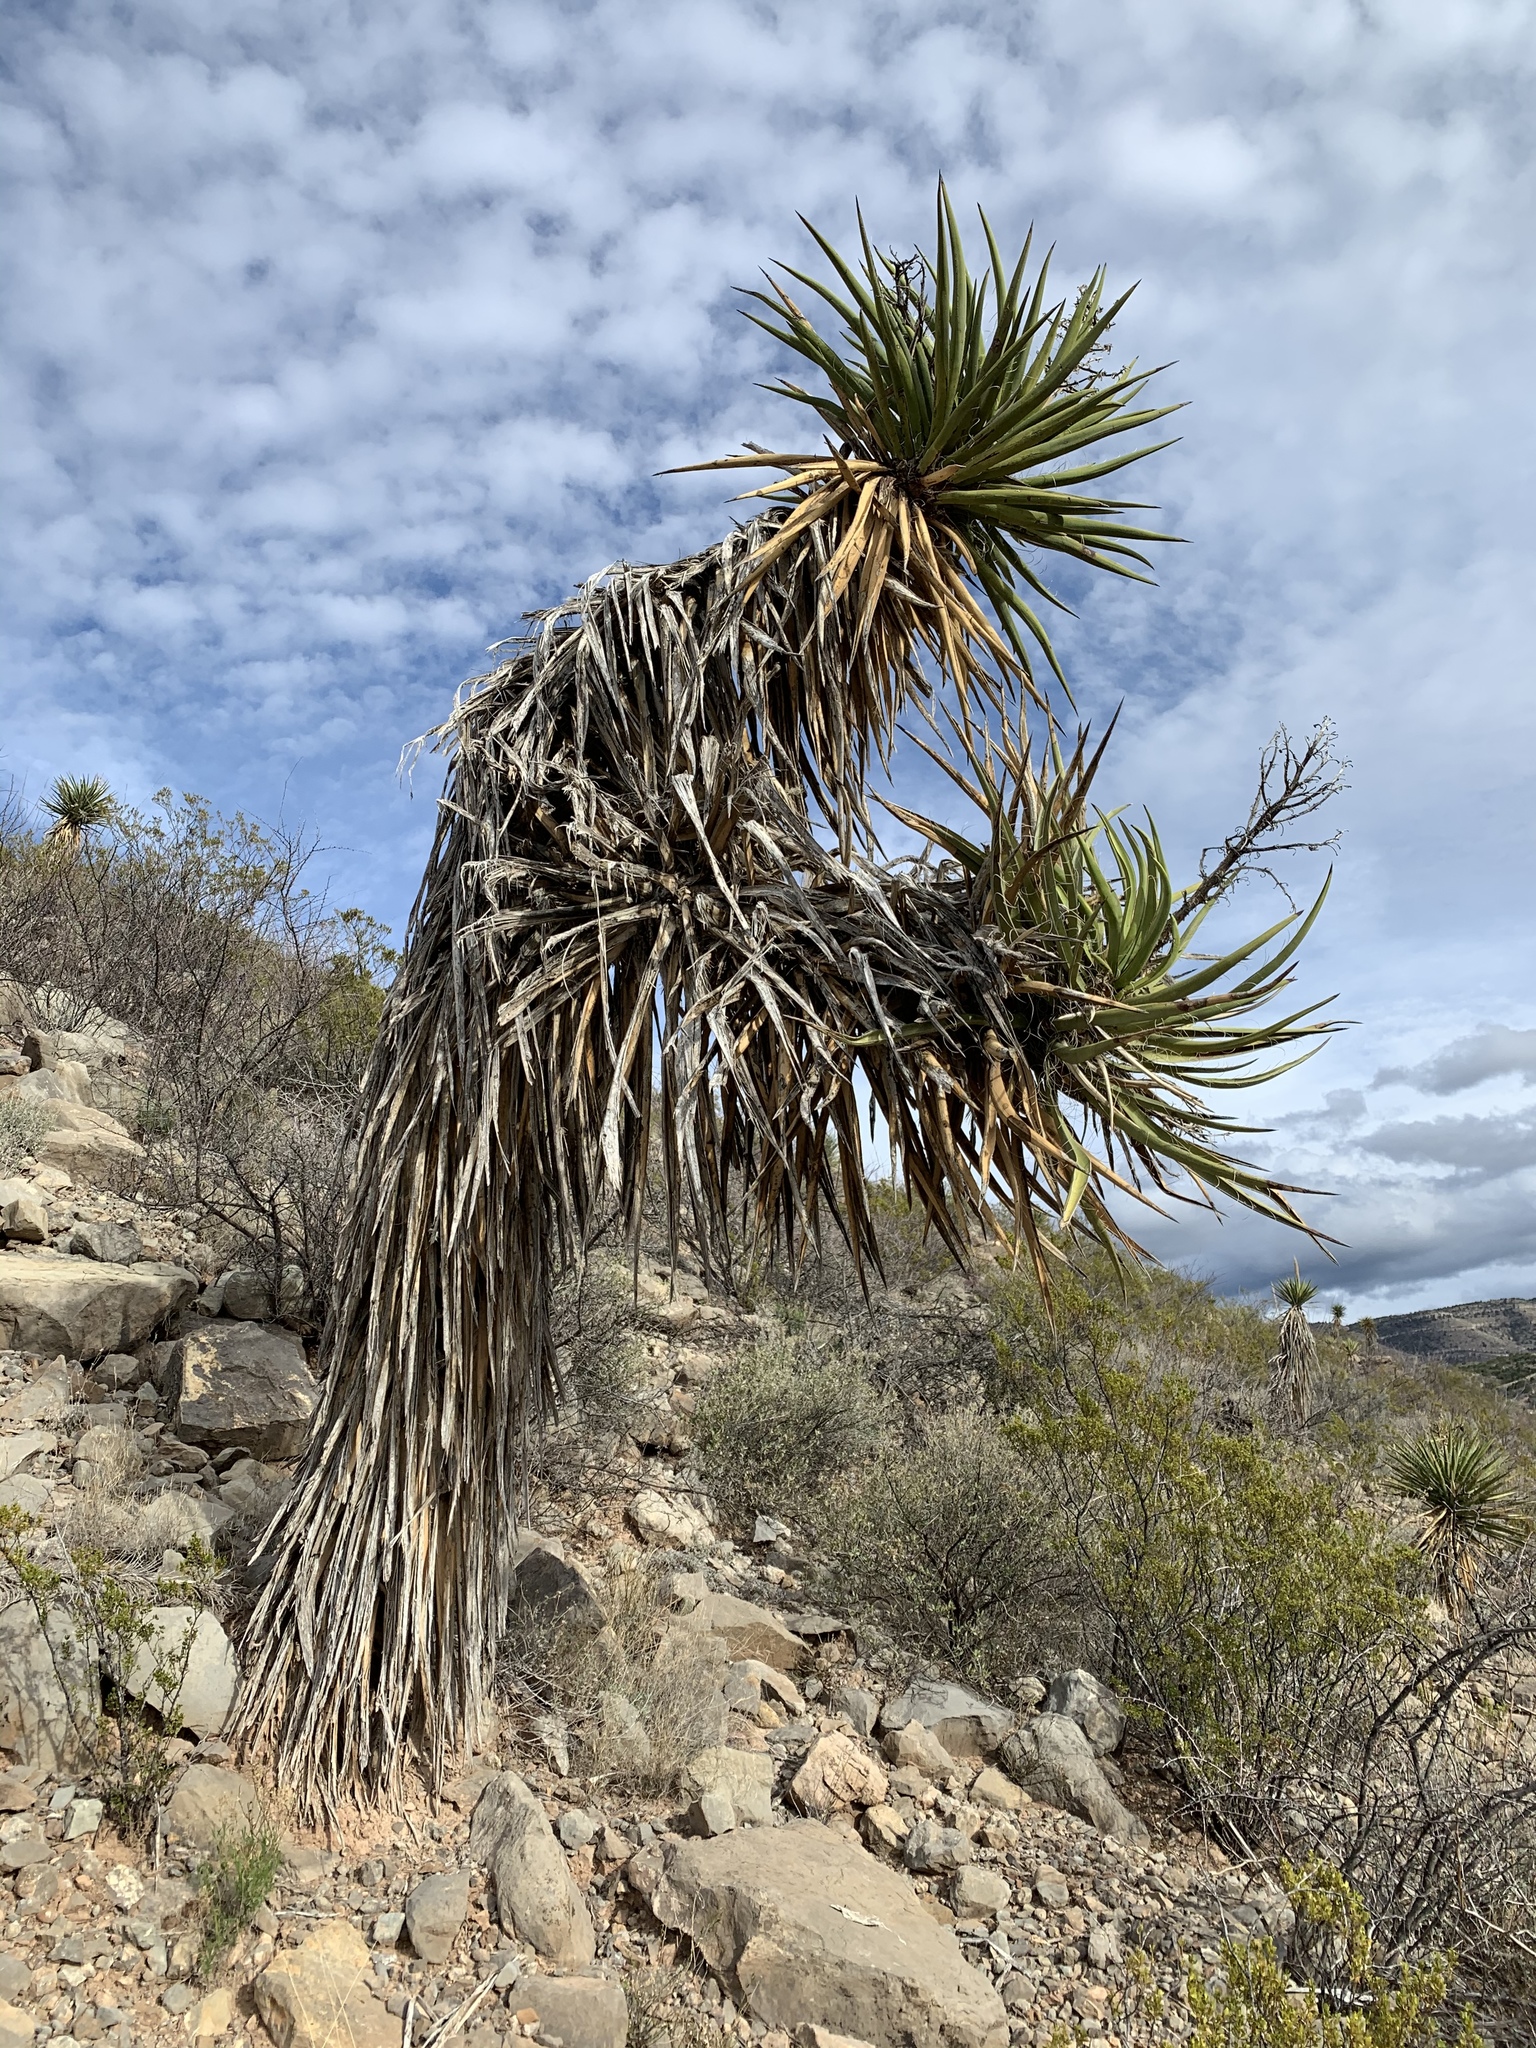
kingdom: Plantae
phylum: Tracheophyta
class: Liliopsida
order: Asparagales
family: Asparagaceae
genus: Yucca
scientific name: Yucca treculiana
